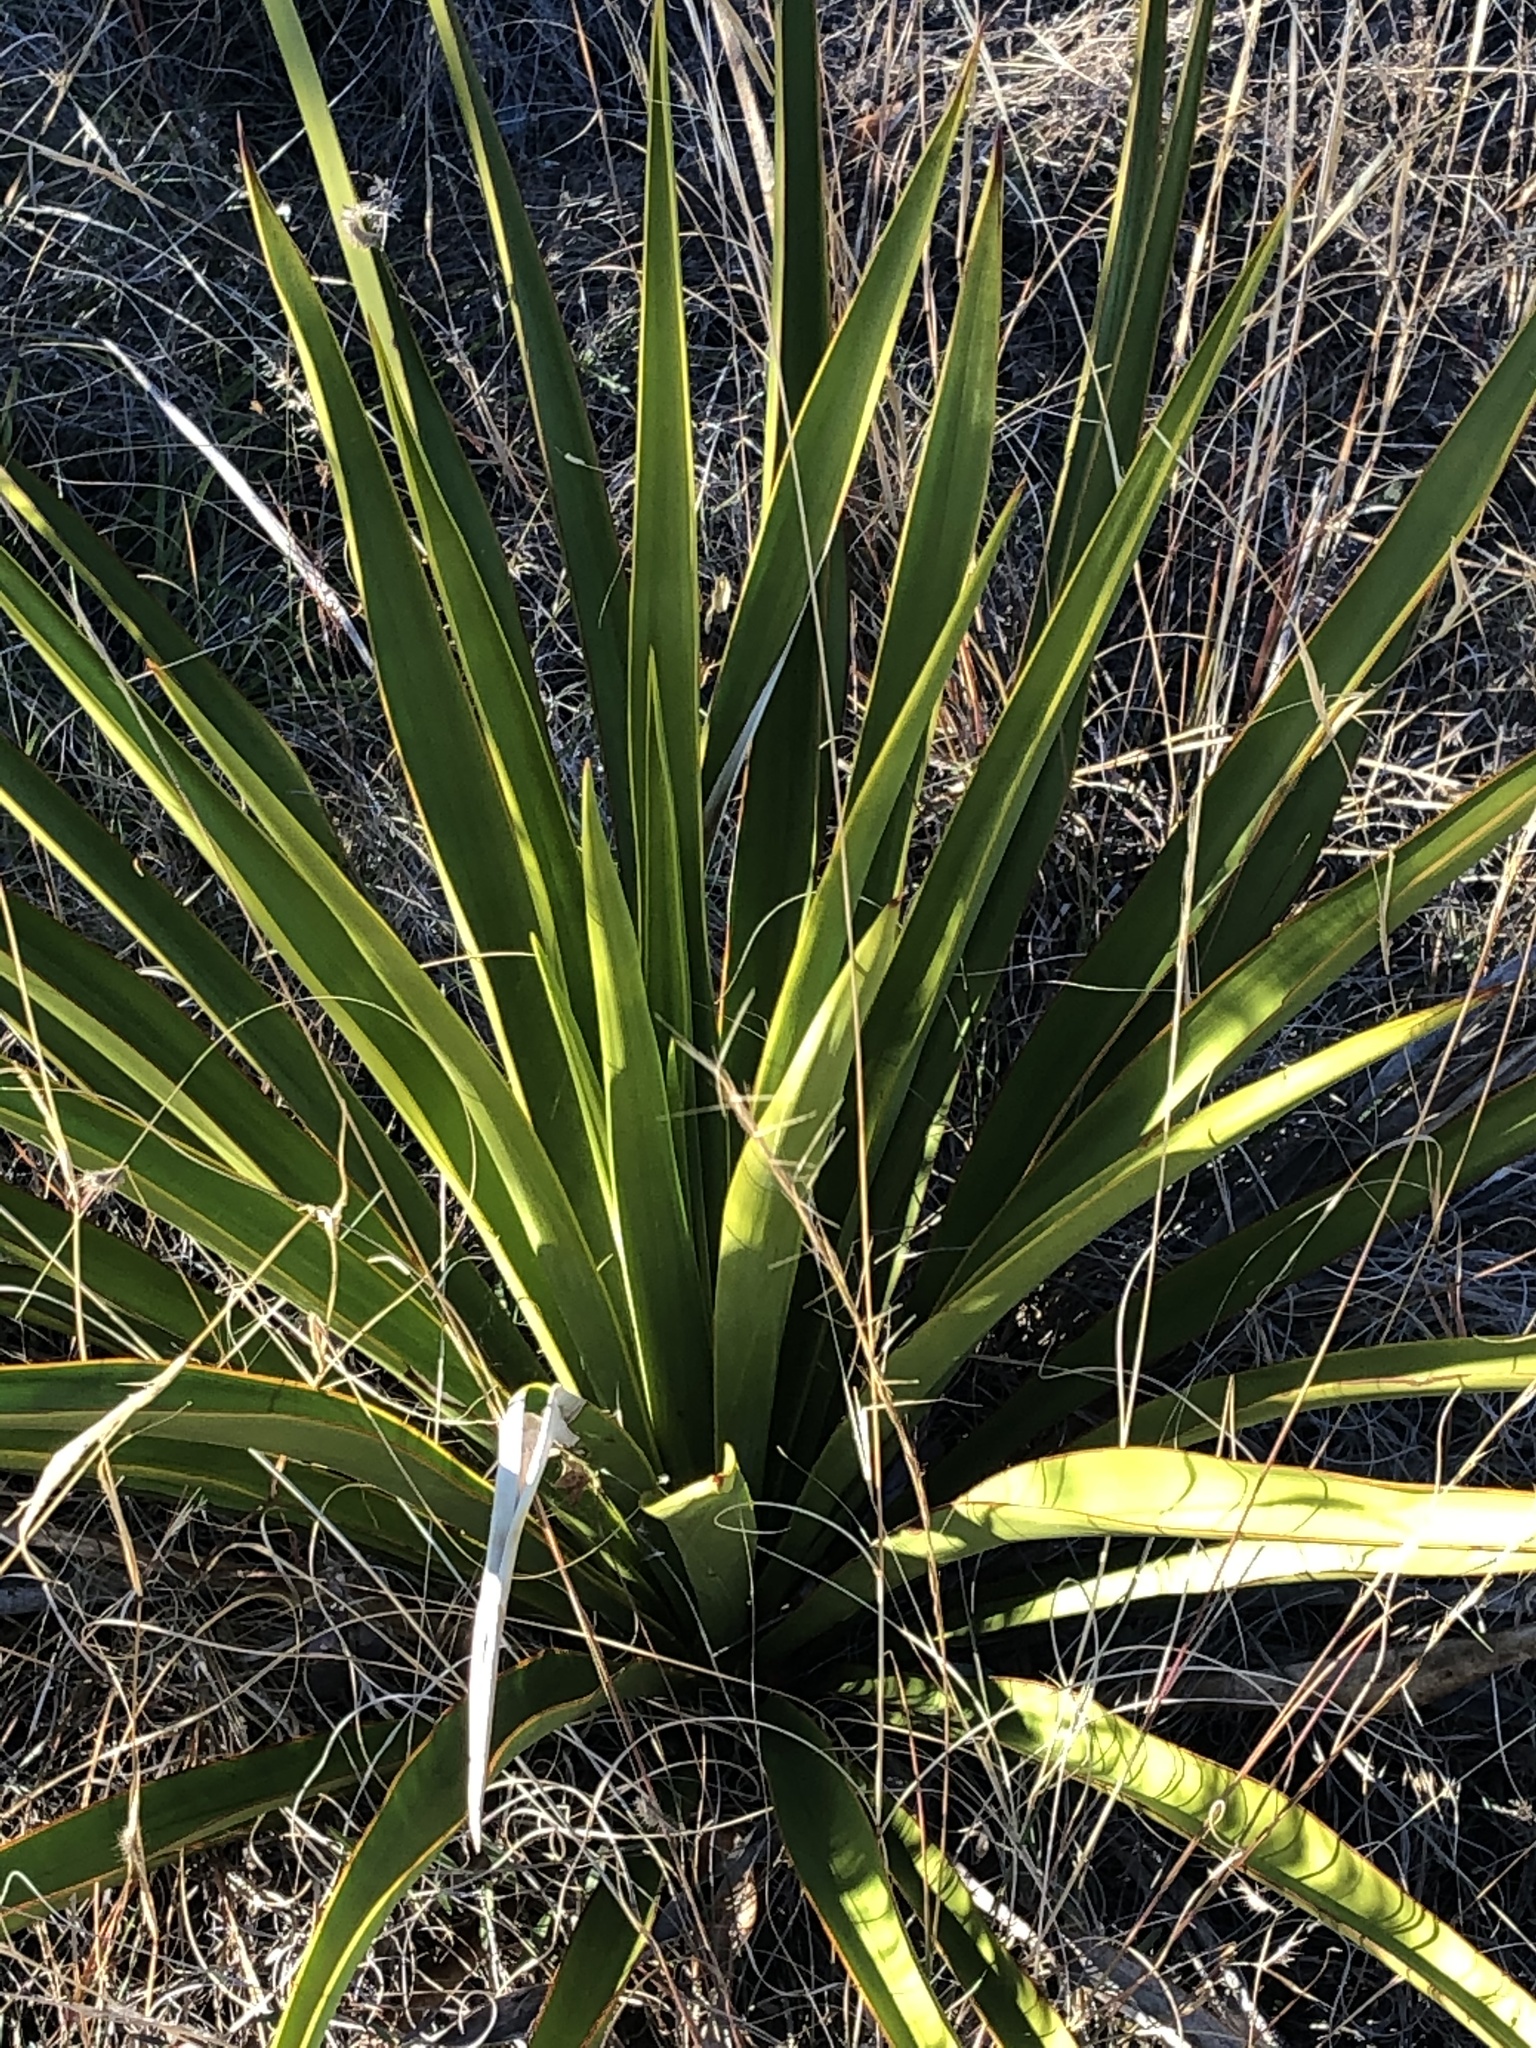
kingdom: Plantae
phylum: Tracheophyta
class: Liliopsida
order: Asparagales
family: Asparagaceae
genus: Yucca
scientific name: Yucca rupicola
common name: Twisted-leaf spanish-dagger
